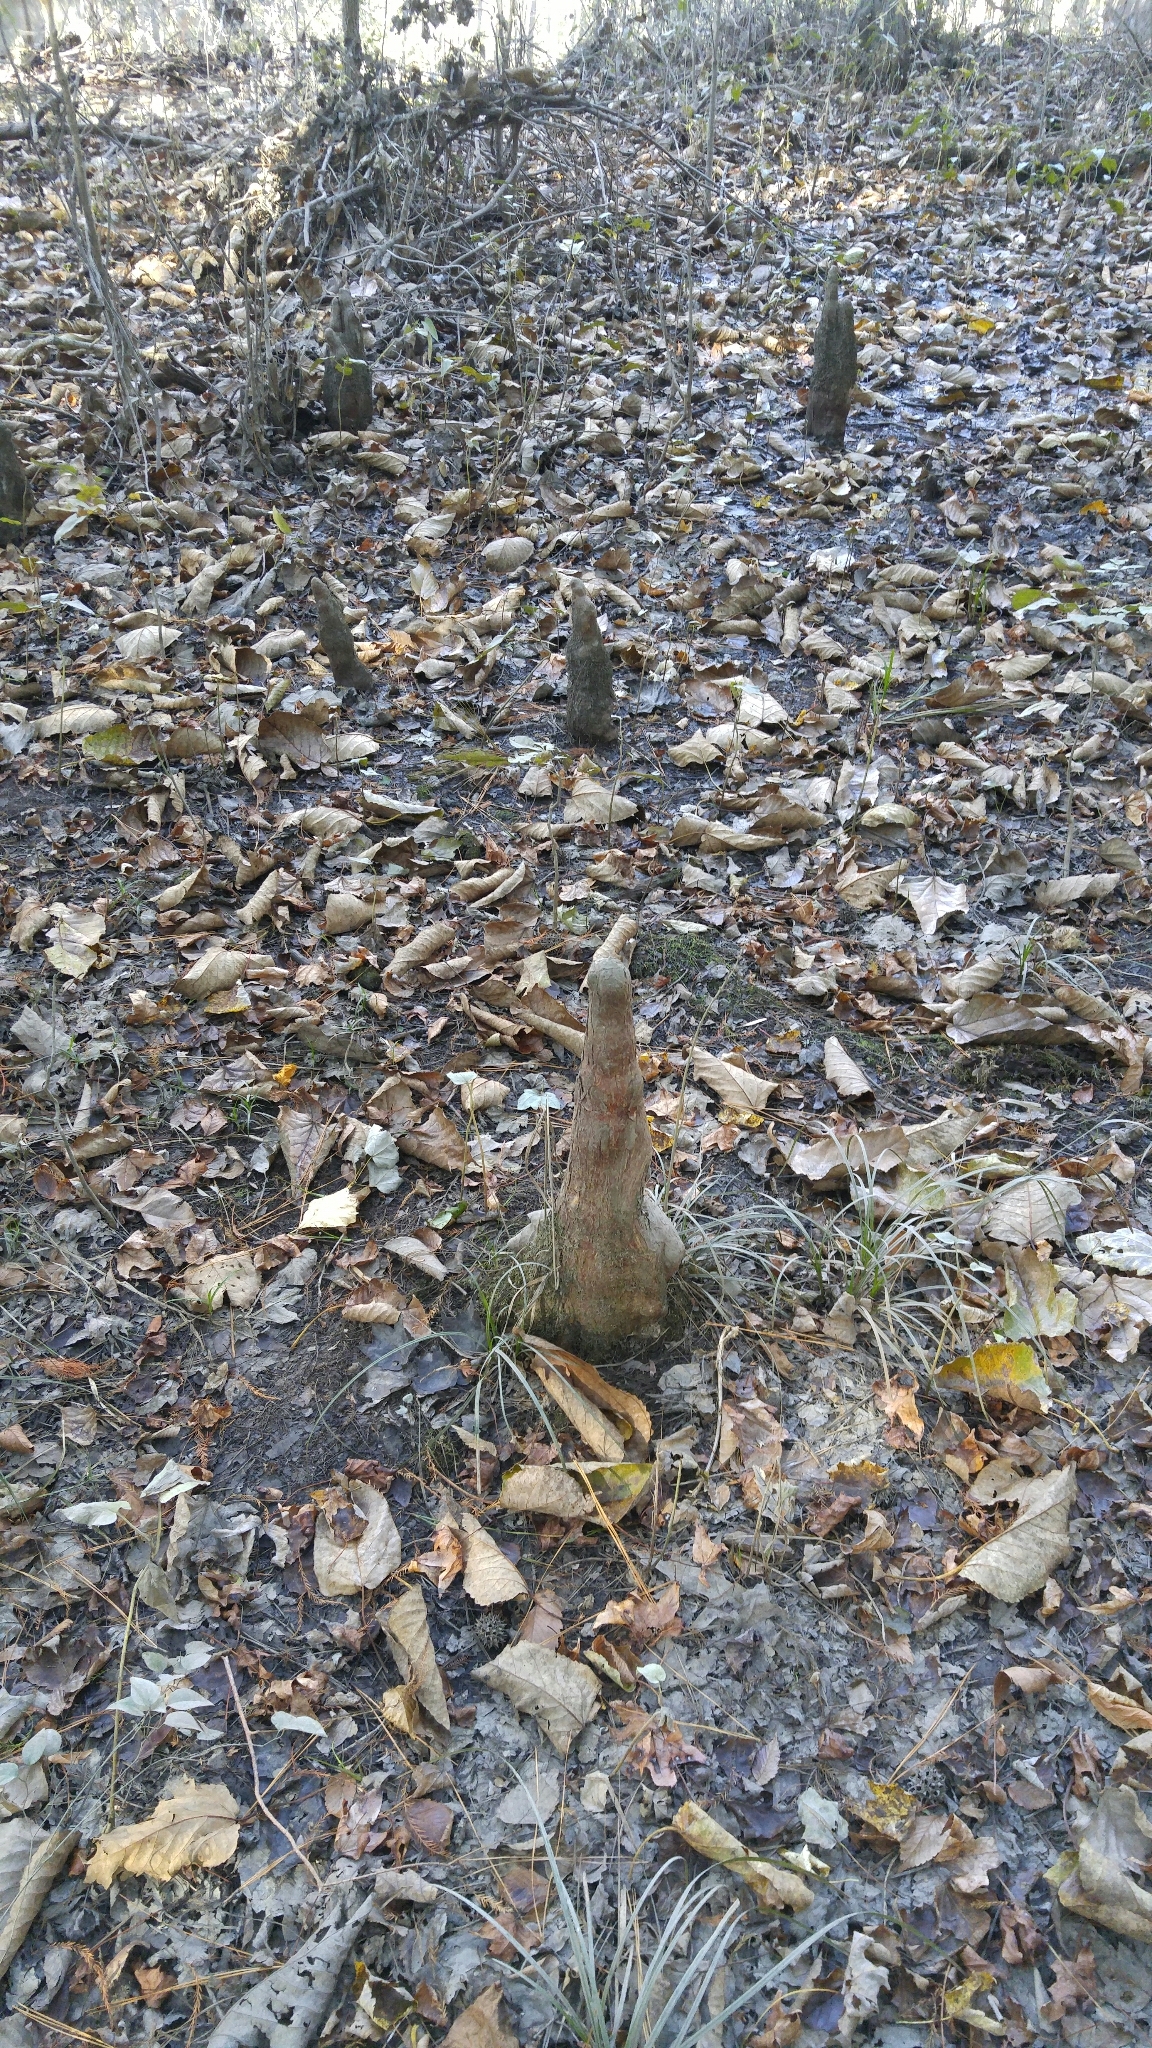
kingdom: Plantae
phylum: Tracheophyta
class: Pinopsida
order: Pinales
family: Cupressaceae
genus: Taxodium
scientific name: Taxodium distichum
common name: Bald cypress
